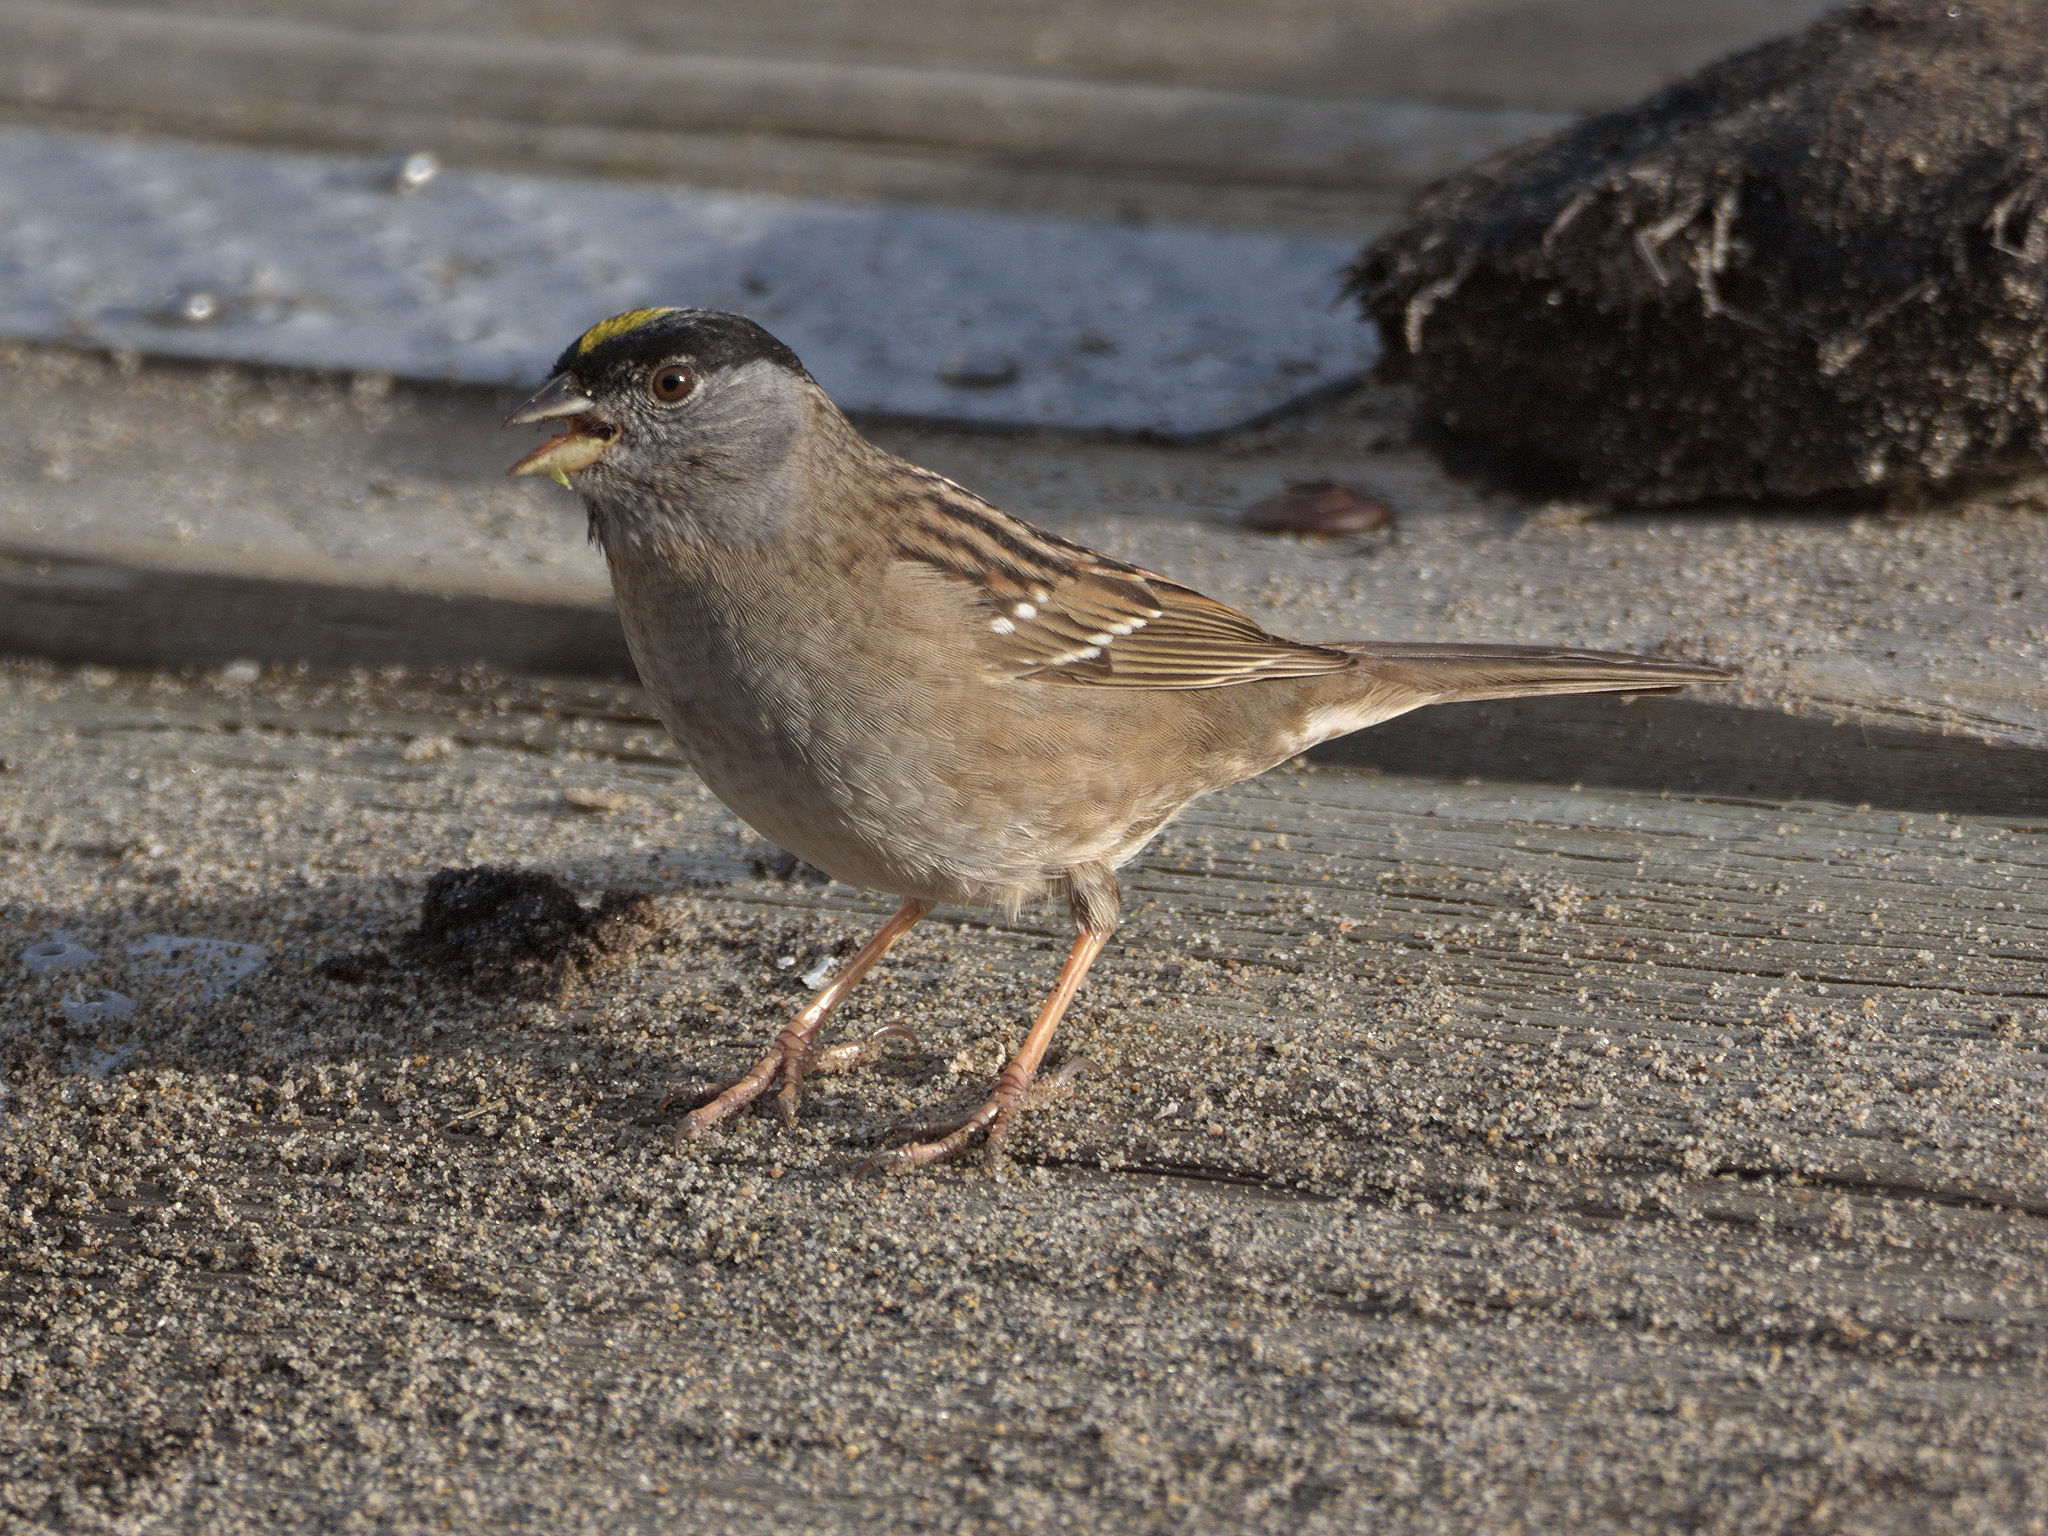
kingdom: Animalia
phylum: Chordata
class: Aves
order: Passeriformes
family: Passerellidae
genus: Zonotrichia
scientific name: Zonotrichia atricapilla
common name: Golden-crowned sparrow
